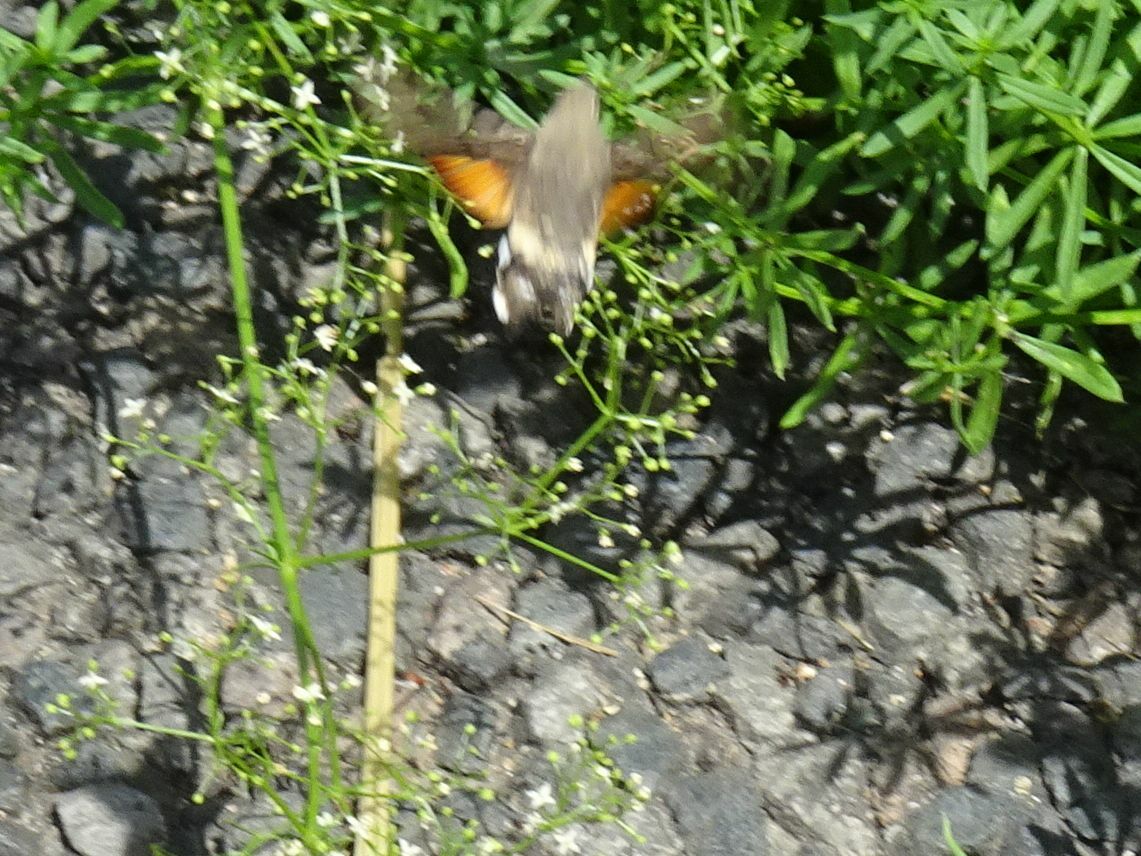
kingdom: Animalia
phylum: Arthropoda
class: Insecta
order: Lepidoptera
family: Sphingidae
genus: Macroglossum
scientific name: Macroglossum stellatarum
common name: Humming-bird hawk-moth
